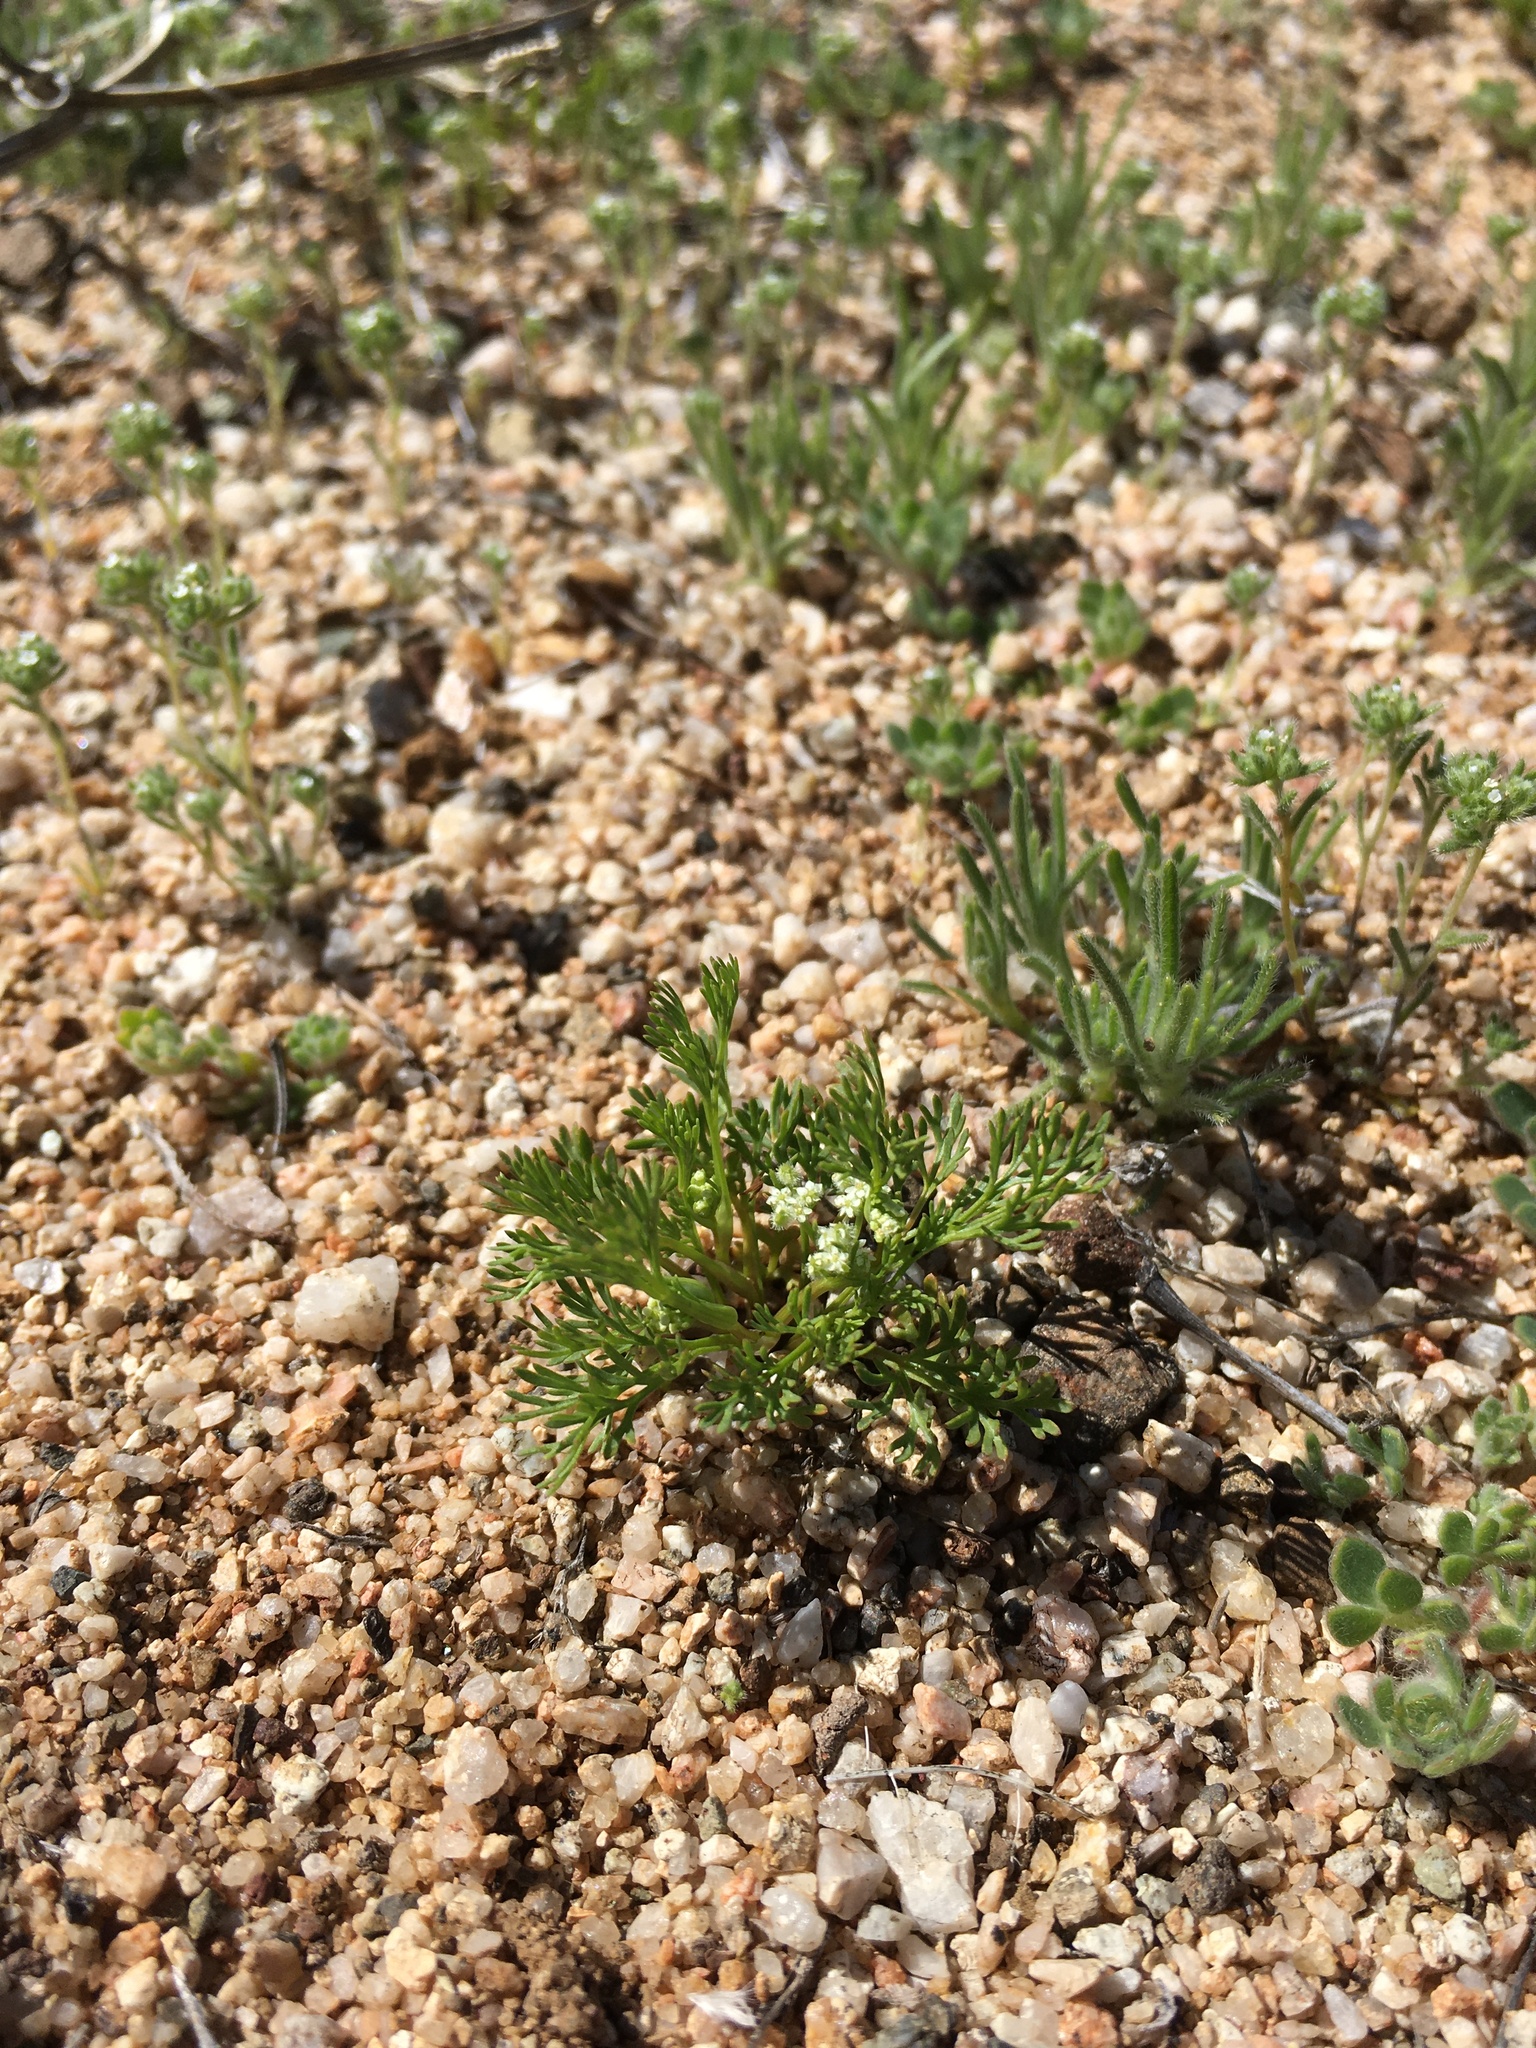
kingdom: Plantae
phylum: Tracheophyta
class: Magnoliopsida
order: Apiales
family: Apiaceae
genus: Spermolepis
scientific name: Spermolepis lateriflora
